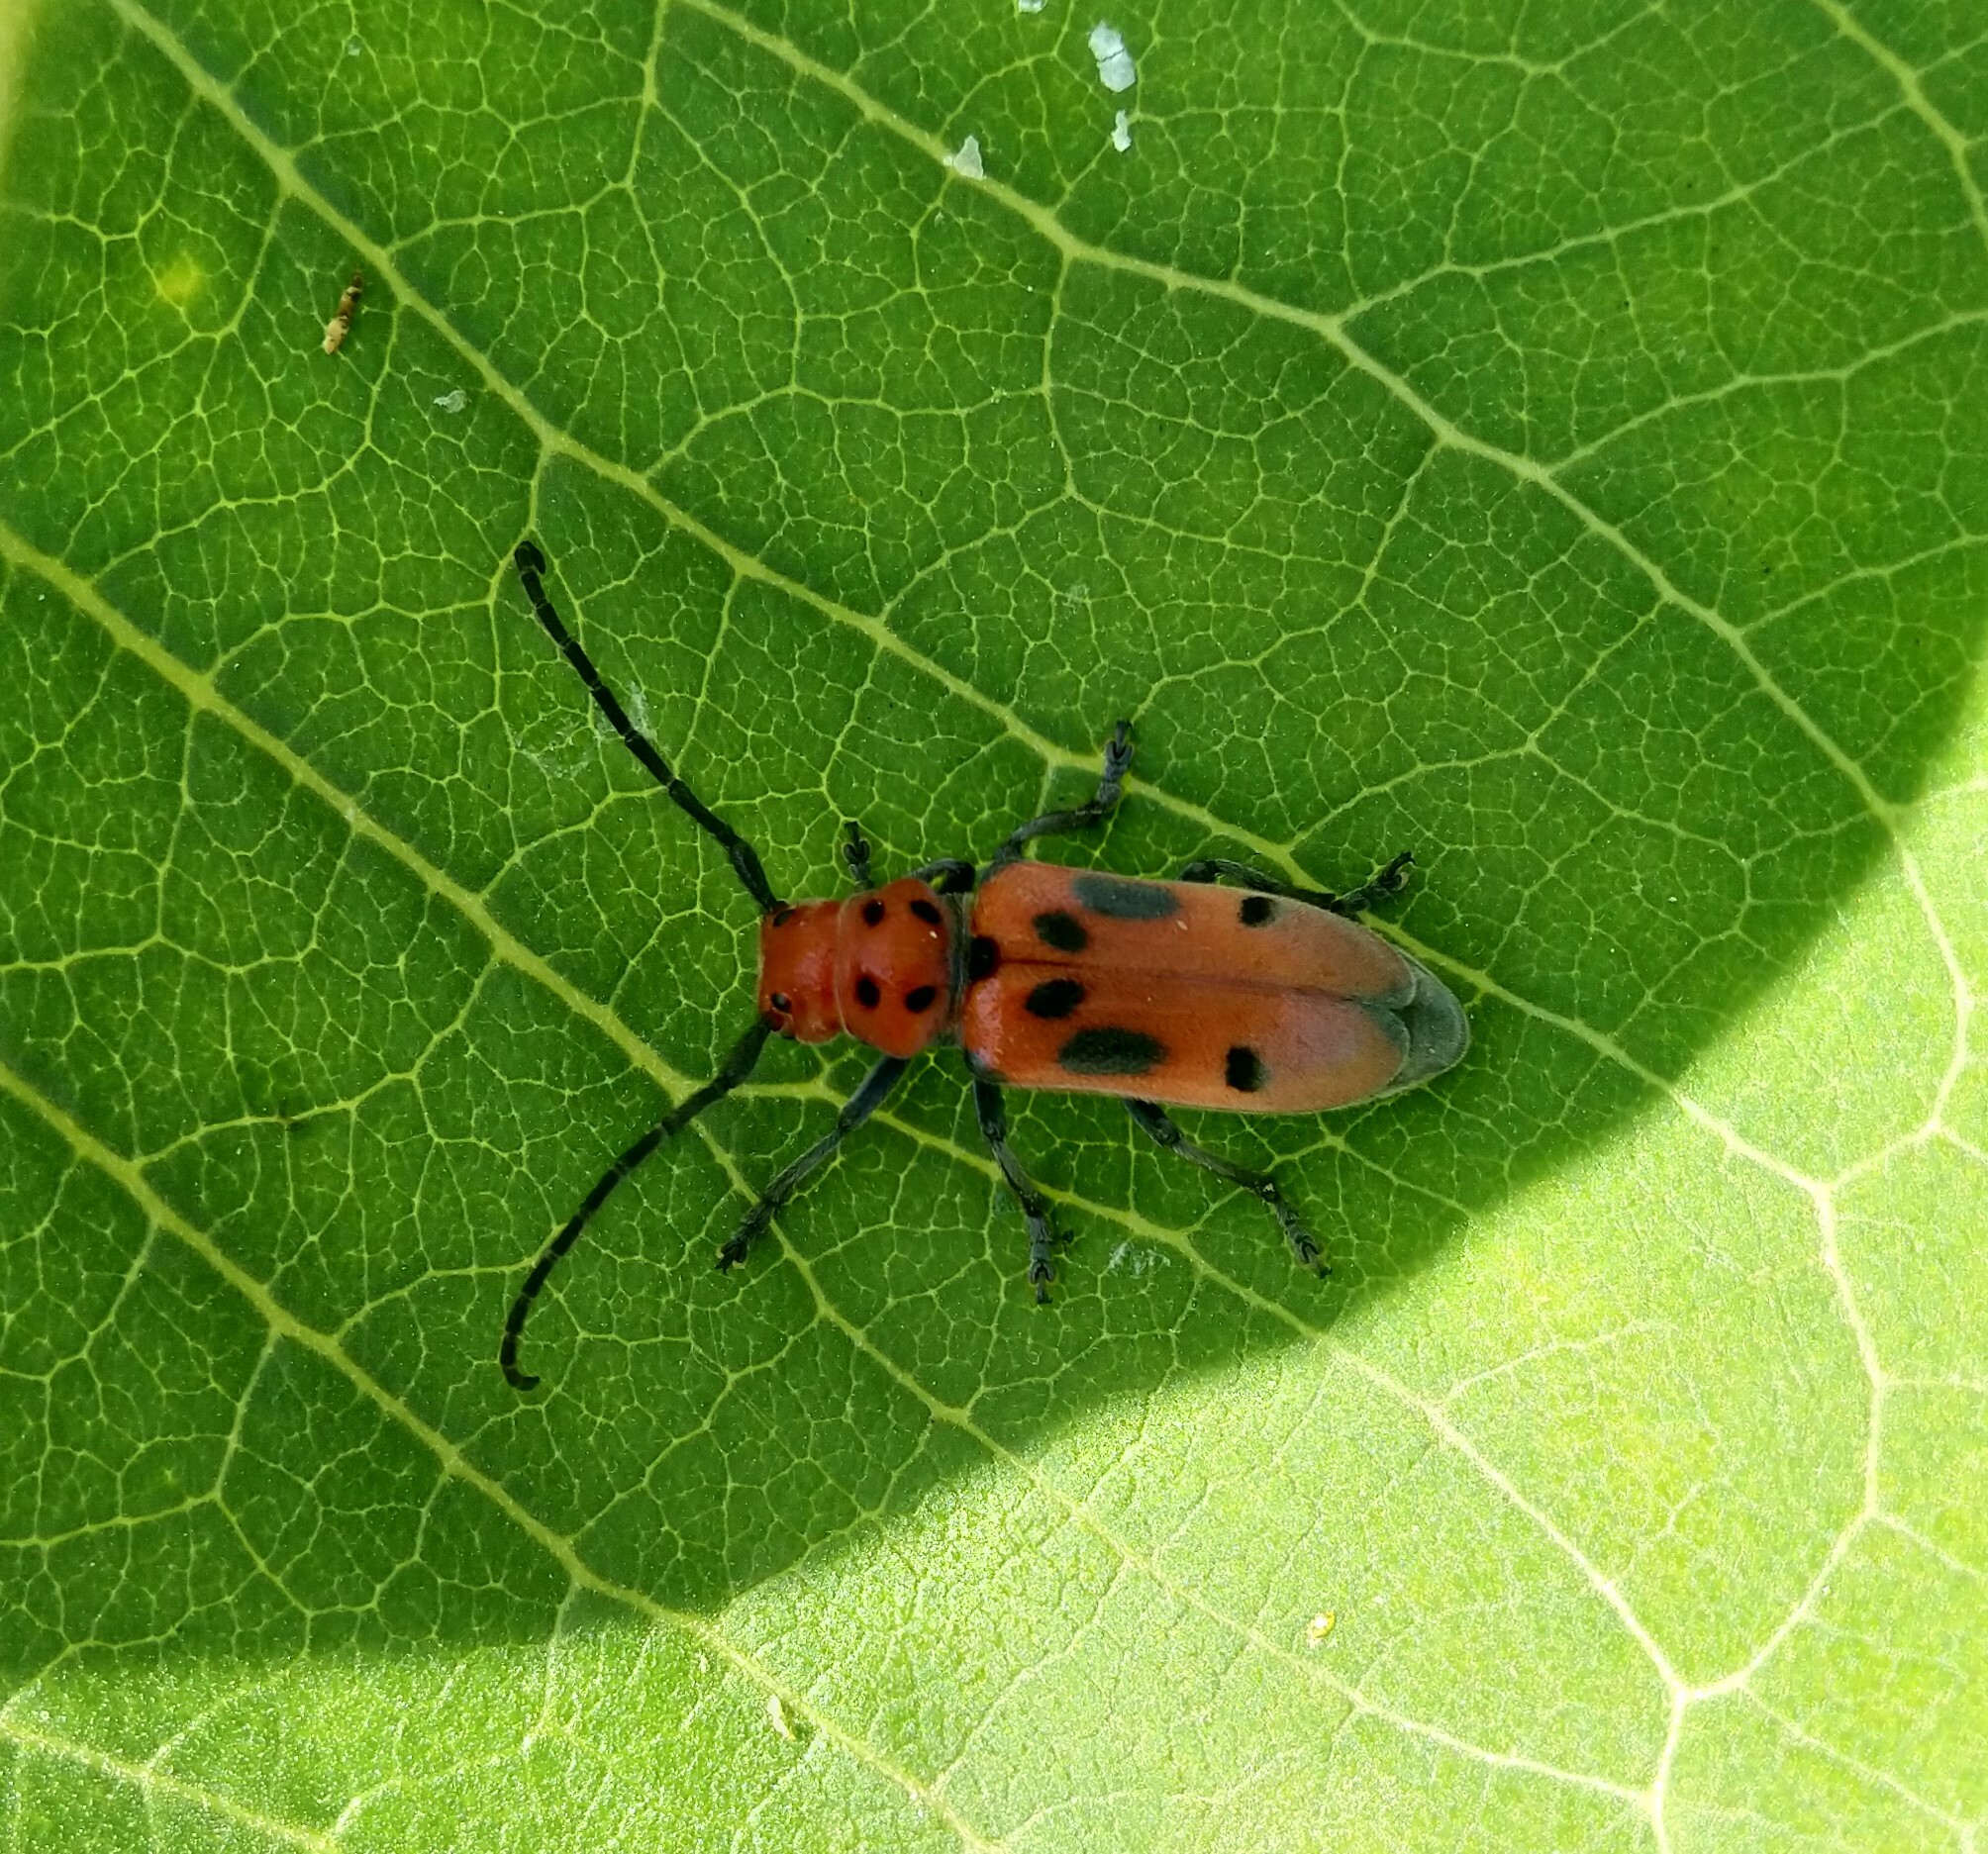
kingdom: Animalia
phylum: Arthropoda
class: Insecta
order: Coleoptera
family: Cerambycidae
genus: Tetraopes
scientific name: Tetraopes tetrophthalmus
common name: Red milkweed beetle
